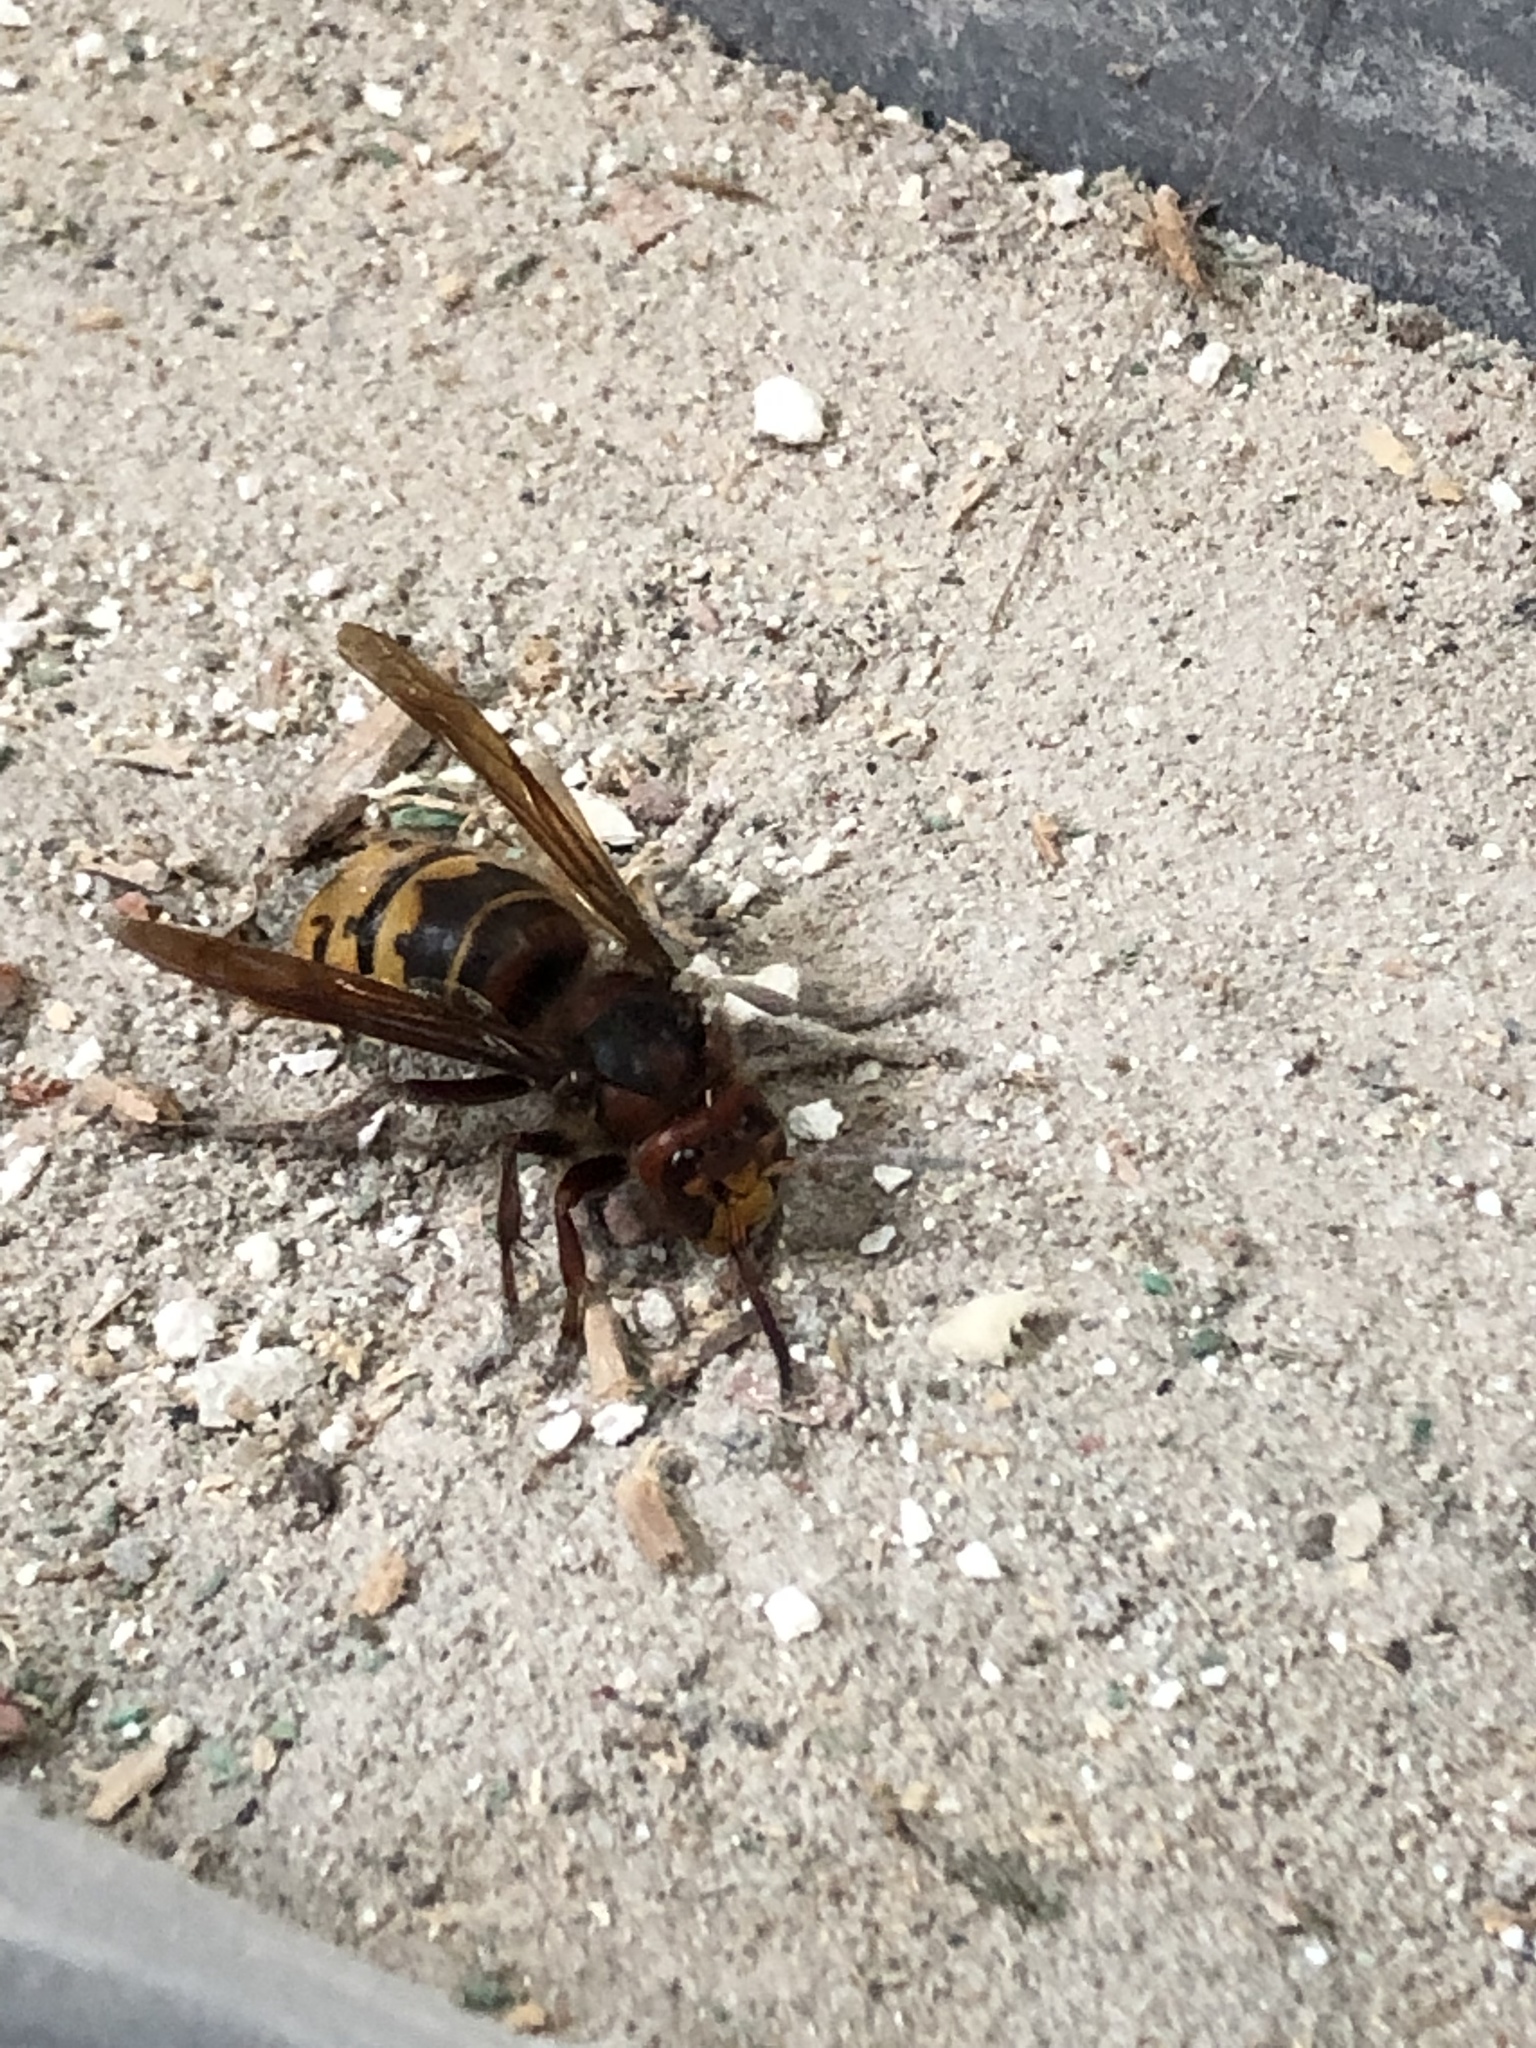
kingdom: Animalia
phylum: Arthropoda
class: Insecta
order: Hymenoptera
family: Vespidae
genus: Vespa
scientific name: Vespa crabro
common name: Hornet
